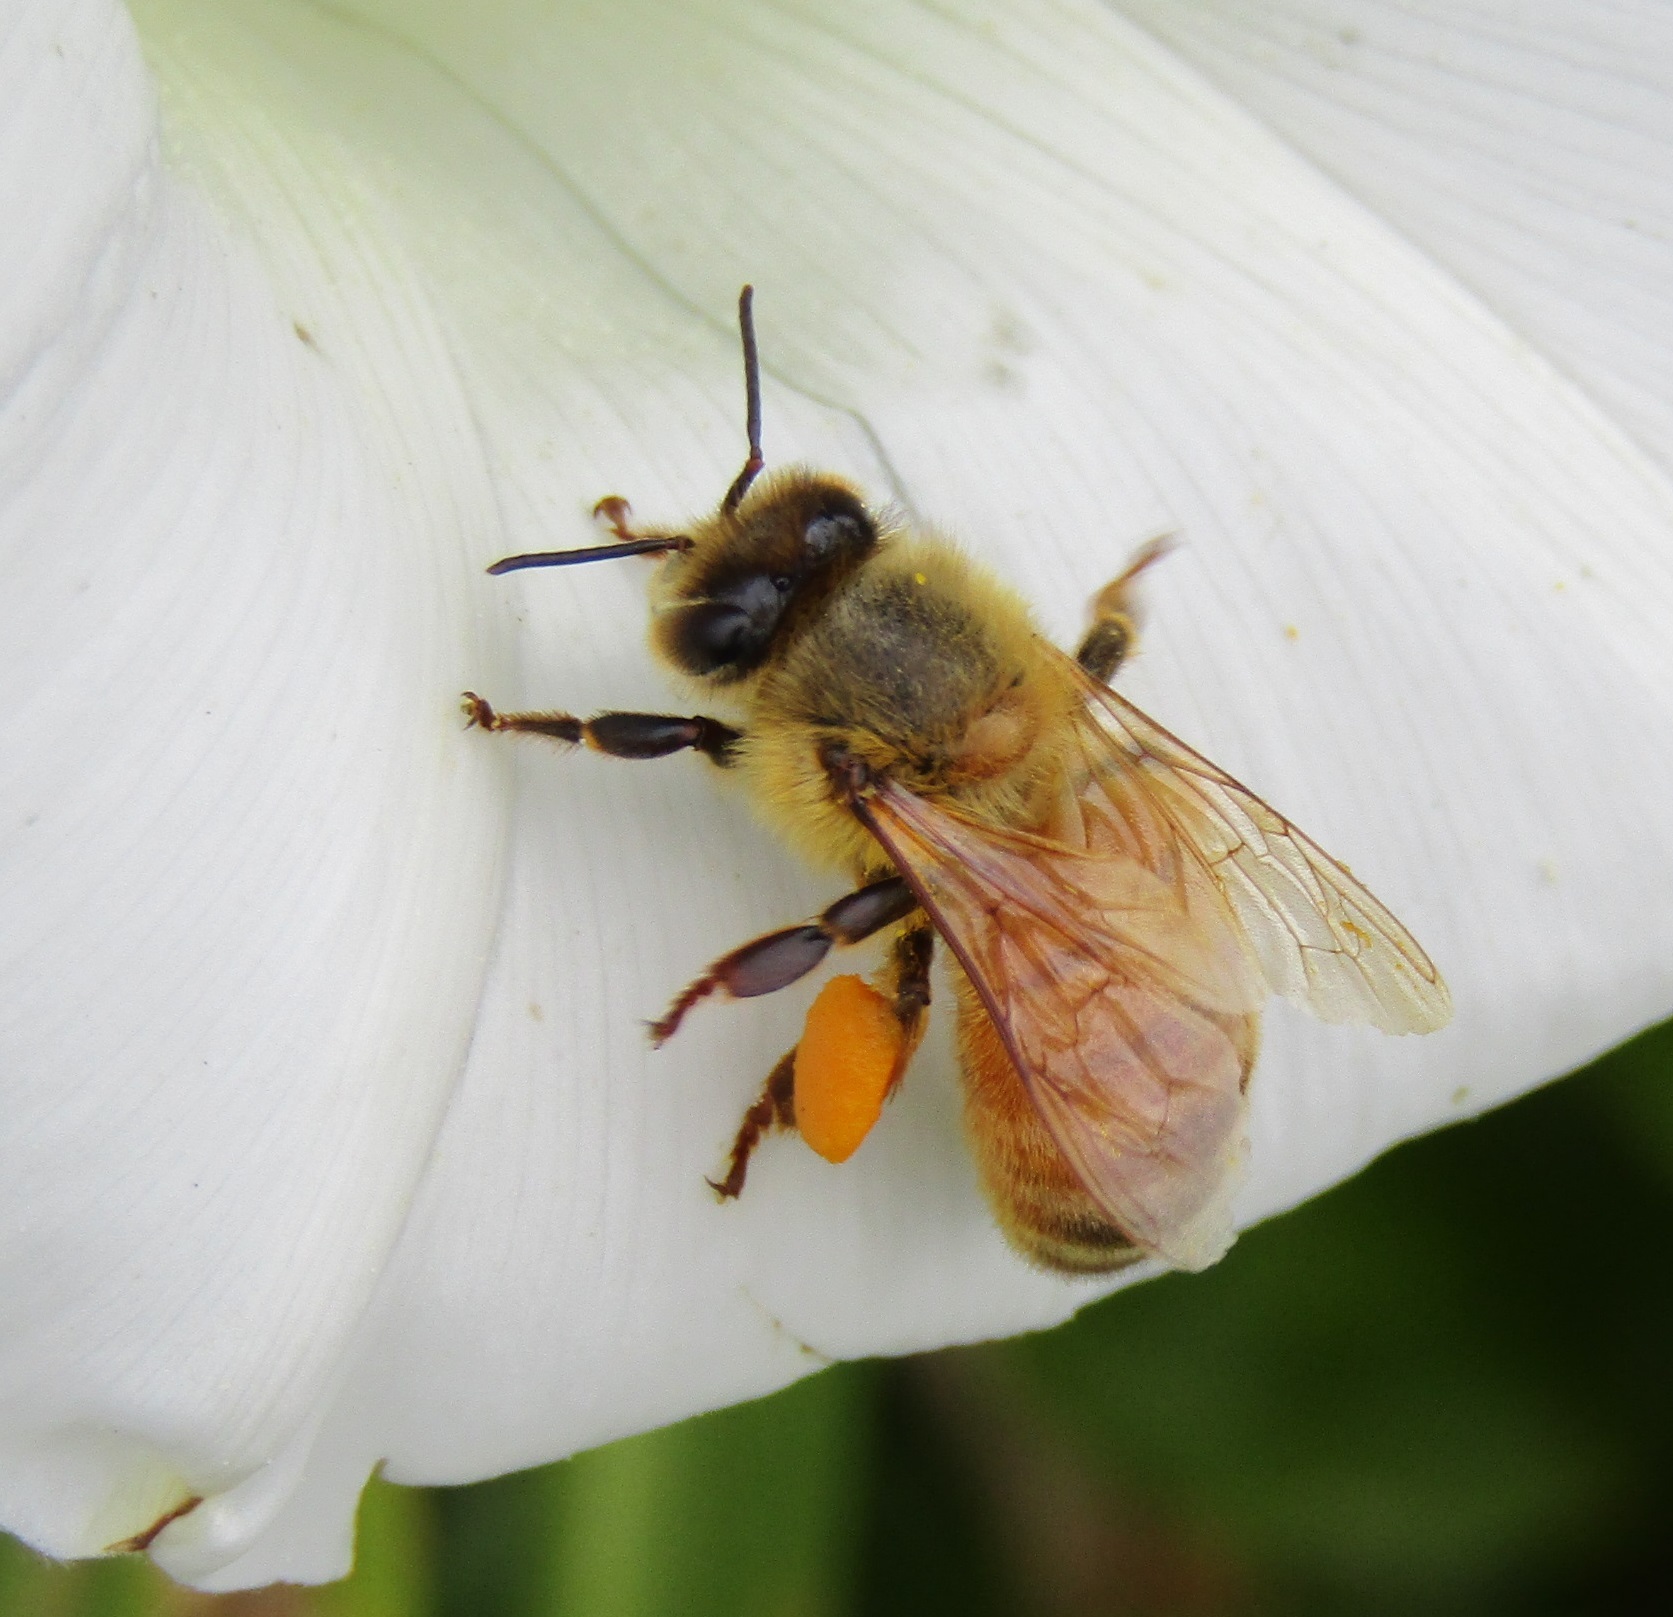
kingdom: Animalia
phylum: Arthropoda
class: Insecta
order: Hymenoptera
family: Apidae
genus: Apis
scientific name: Apis mellifera
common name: Honey bee
